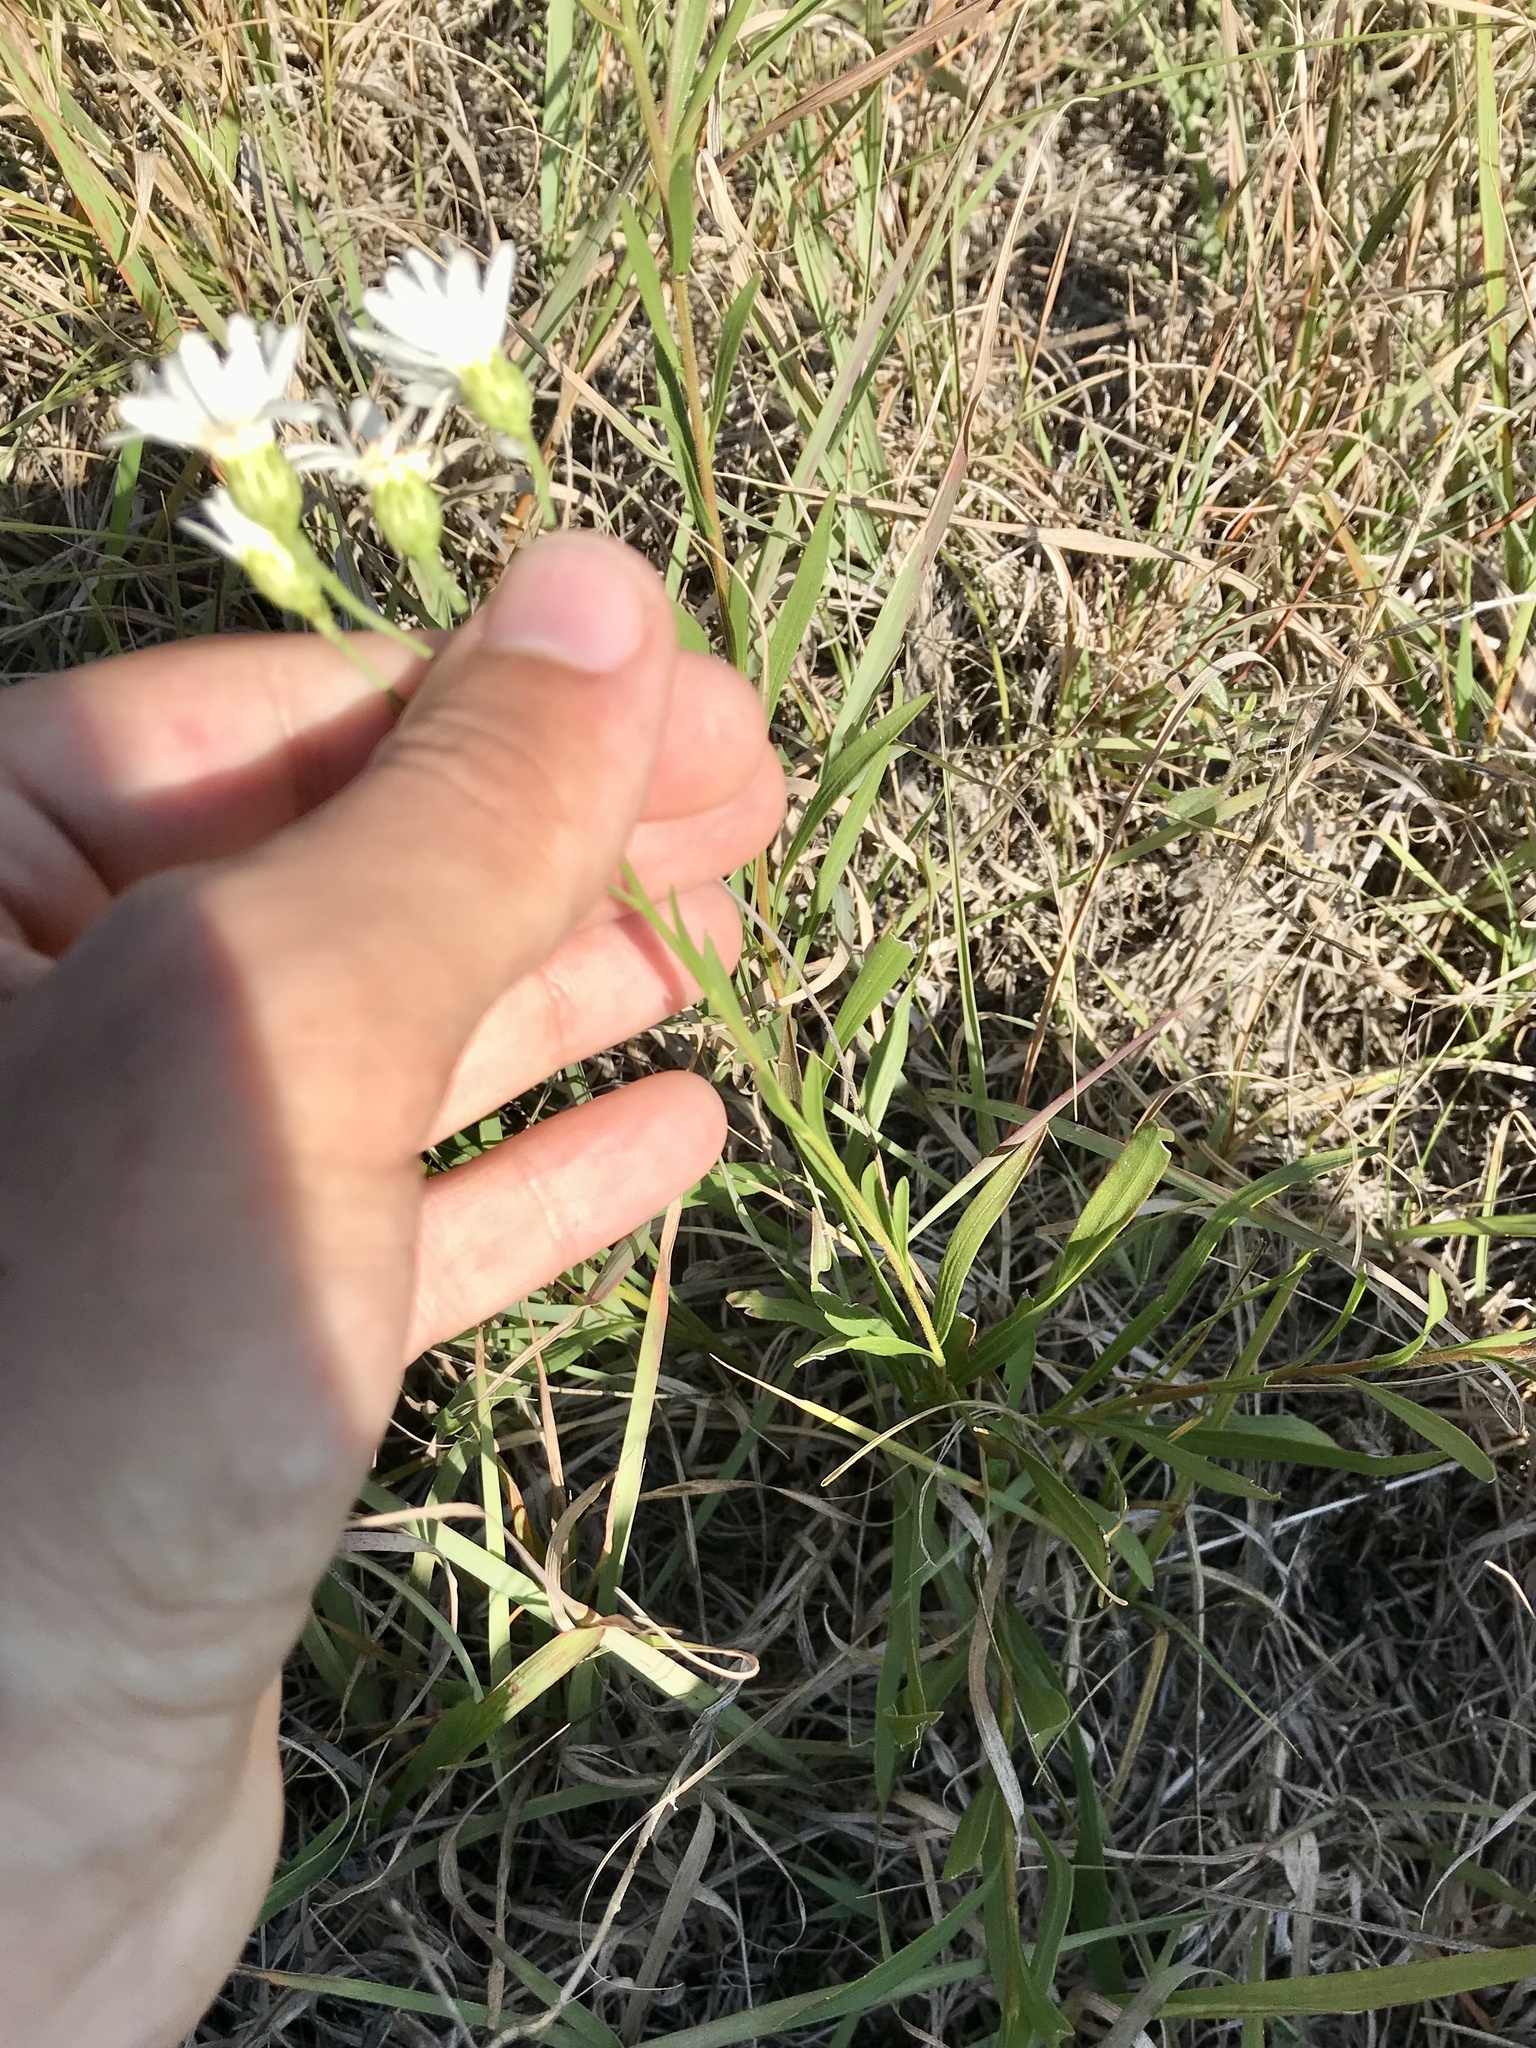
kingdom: Plantae
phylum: Tracheophyta
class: Magnoliopsida
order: Asterales
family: Asteraceae
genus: Solidago
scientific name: Solidago ptarmicoides
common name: White flat-top goldenrod
